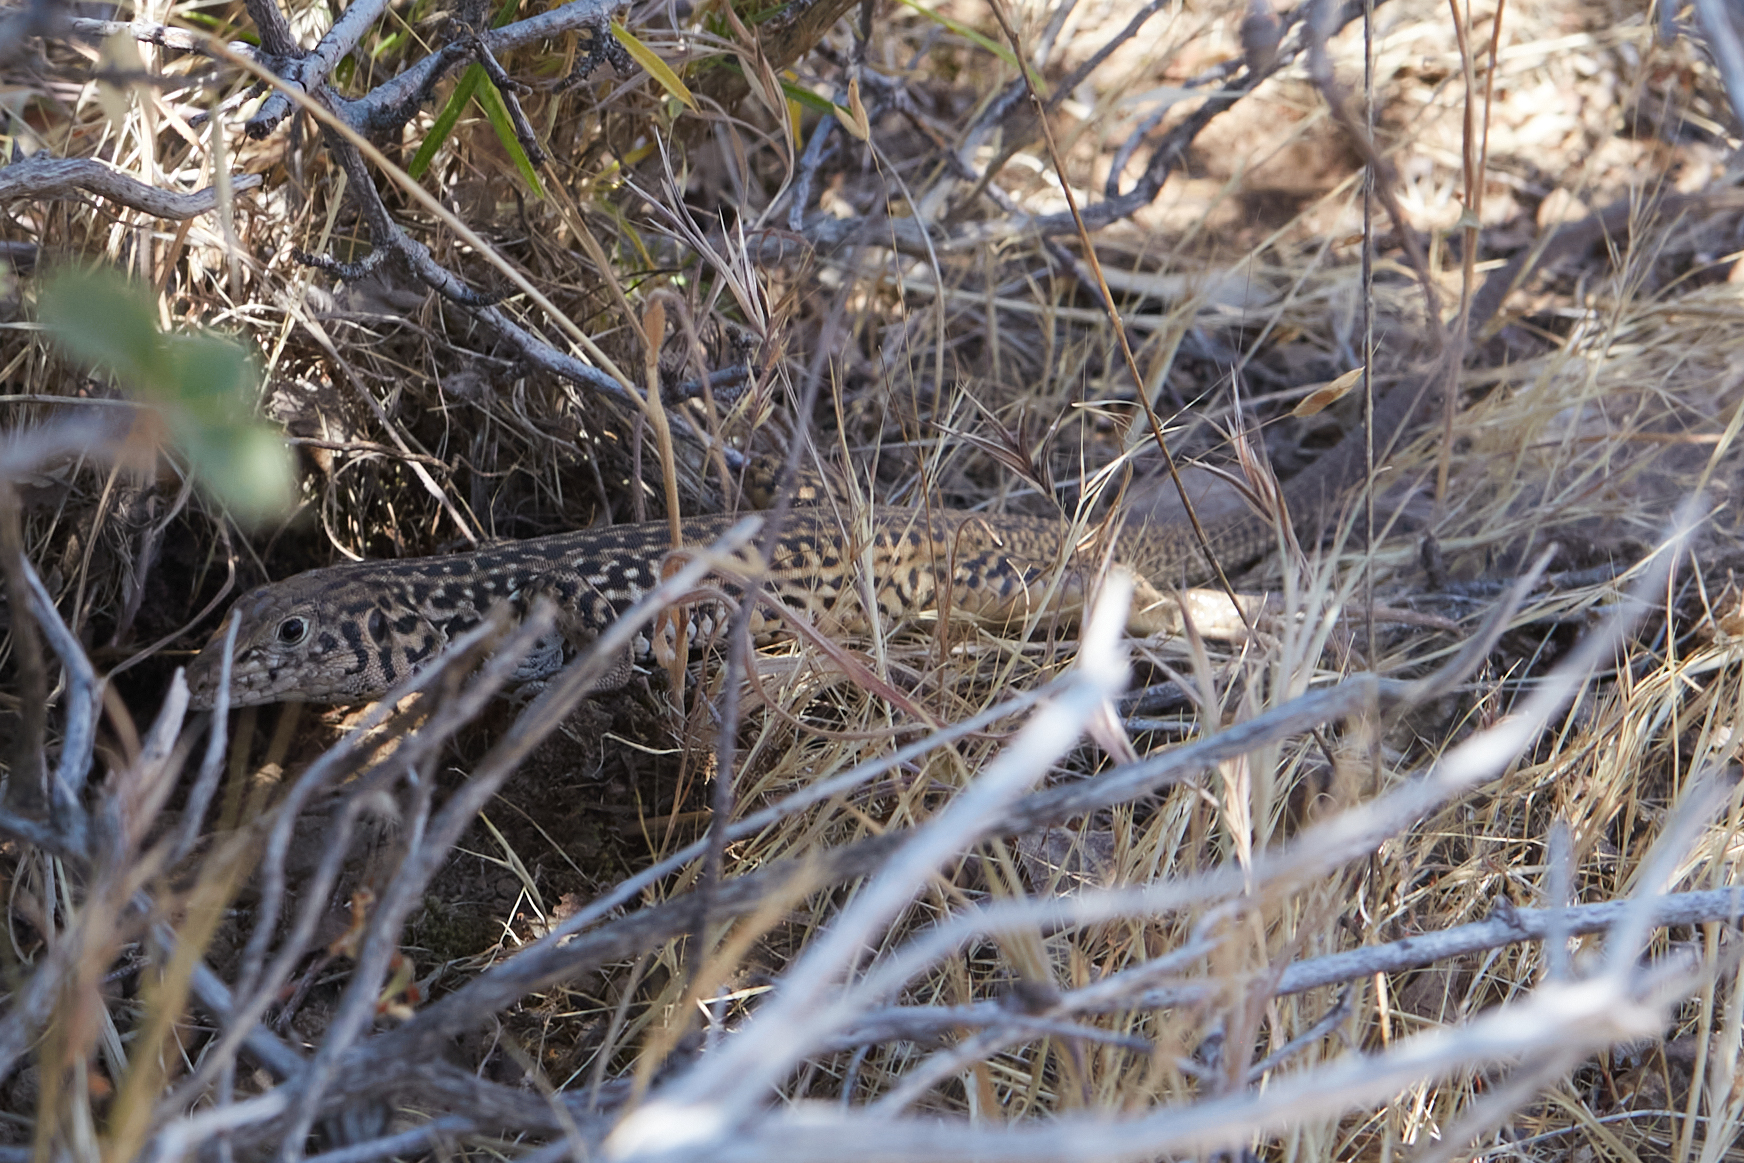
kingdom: Animalia
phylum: Chordata
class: Squamata
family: Teiidae
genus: Aspidoscelis
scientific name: Aspidoscelis tigris
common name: Tiger whiptail
